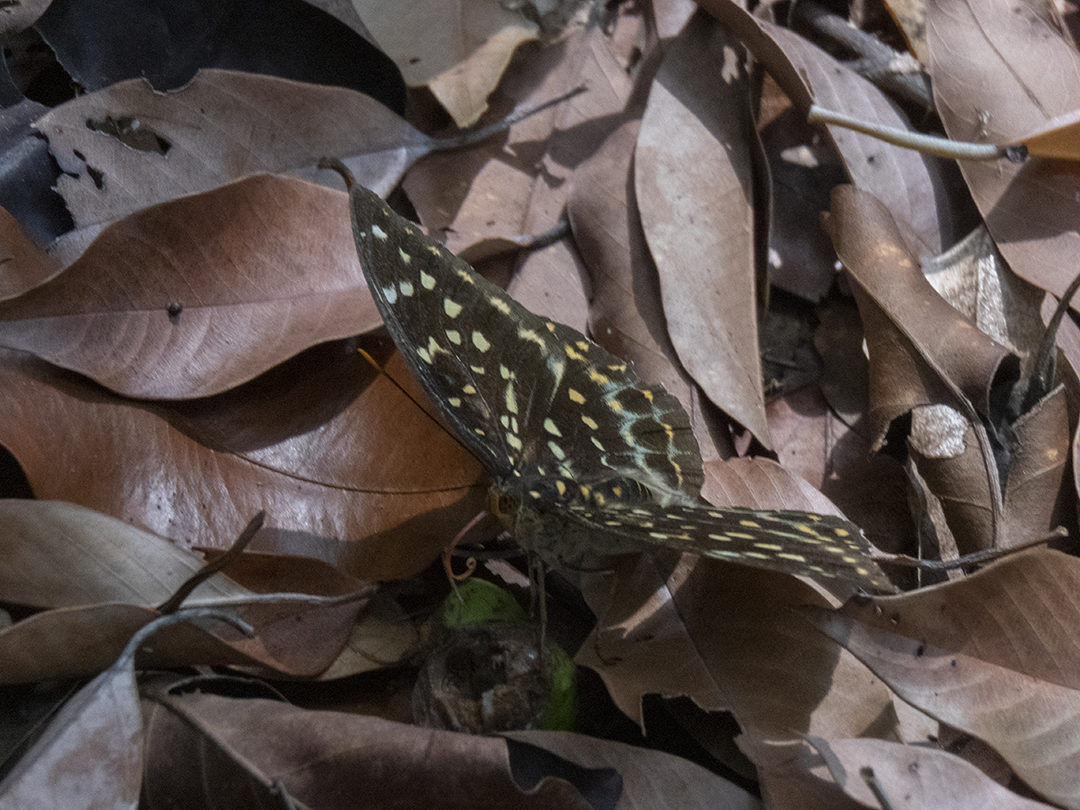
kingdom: Animalia
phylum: Arthropoda
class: Insecta
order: Lepidoptera
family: Nymphalidae
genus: Lexias
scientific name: Lexias pardalis
